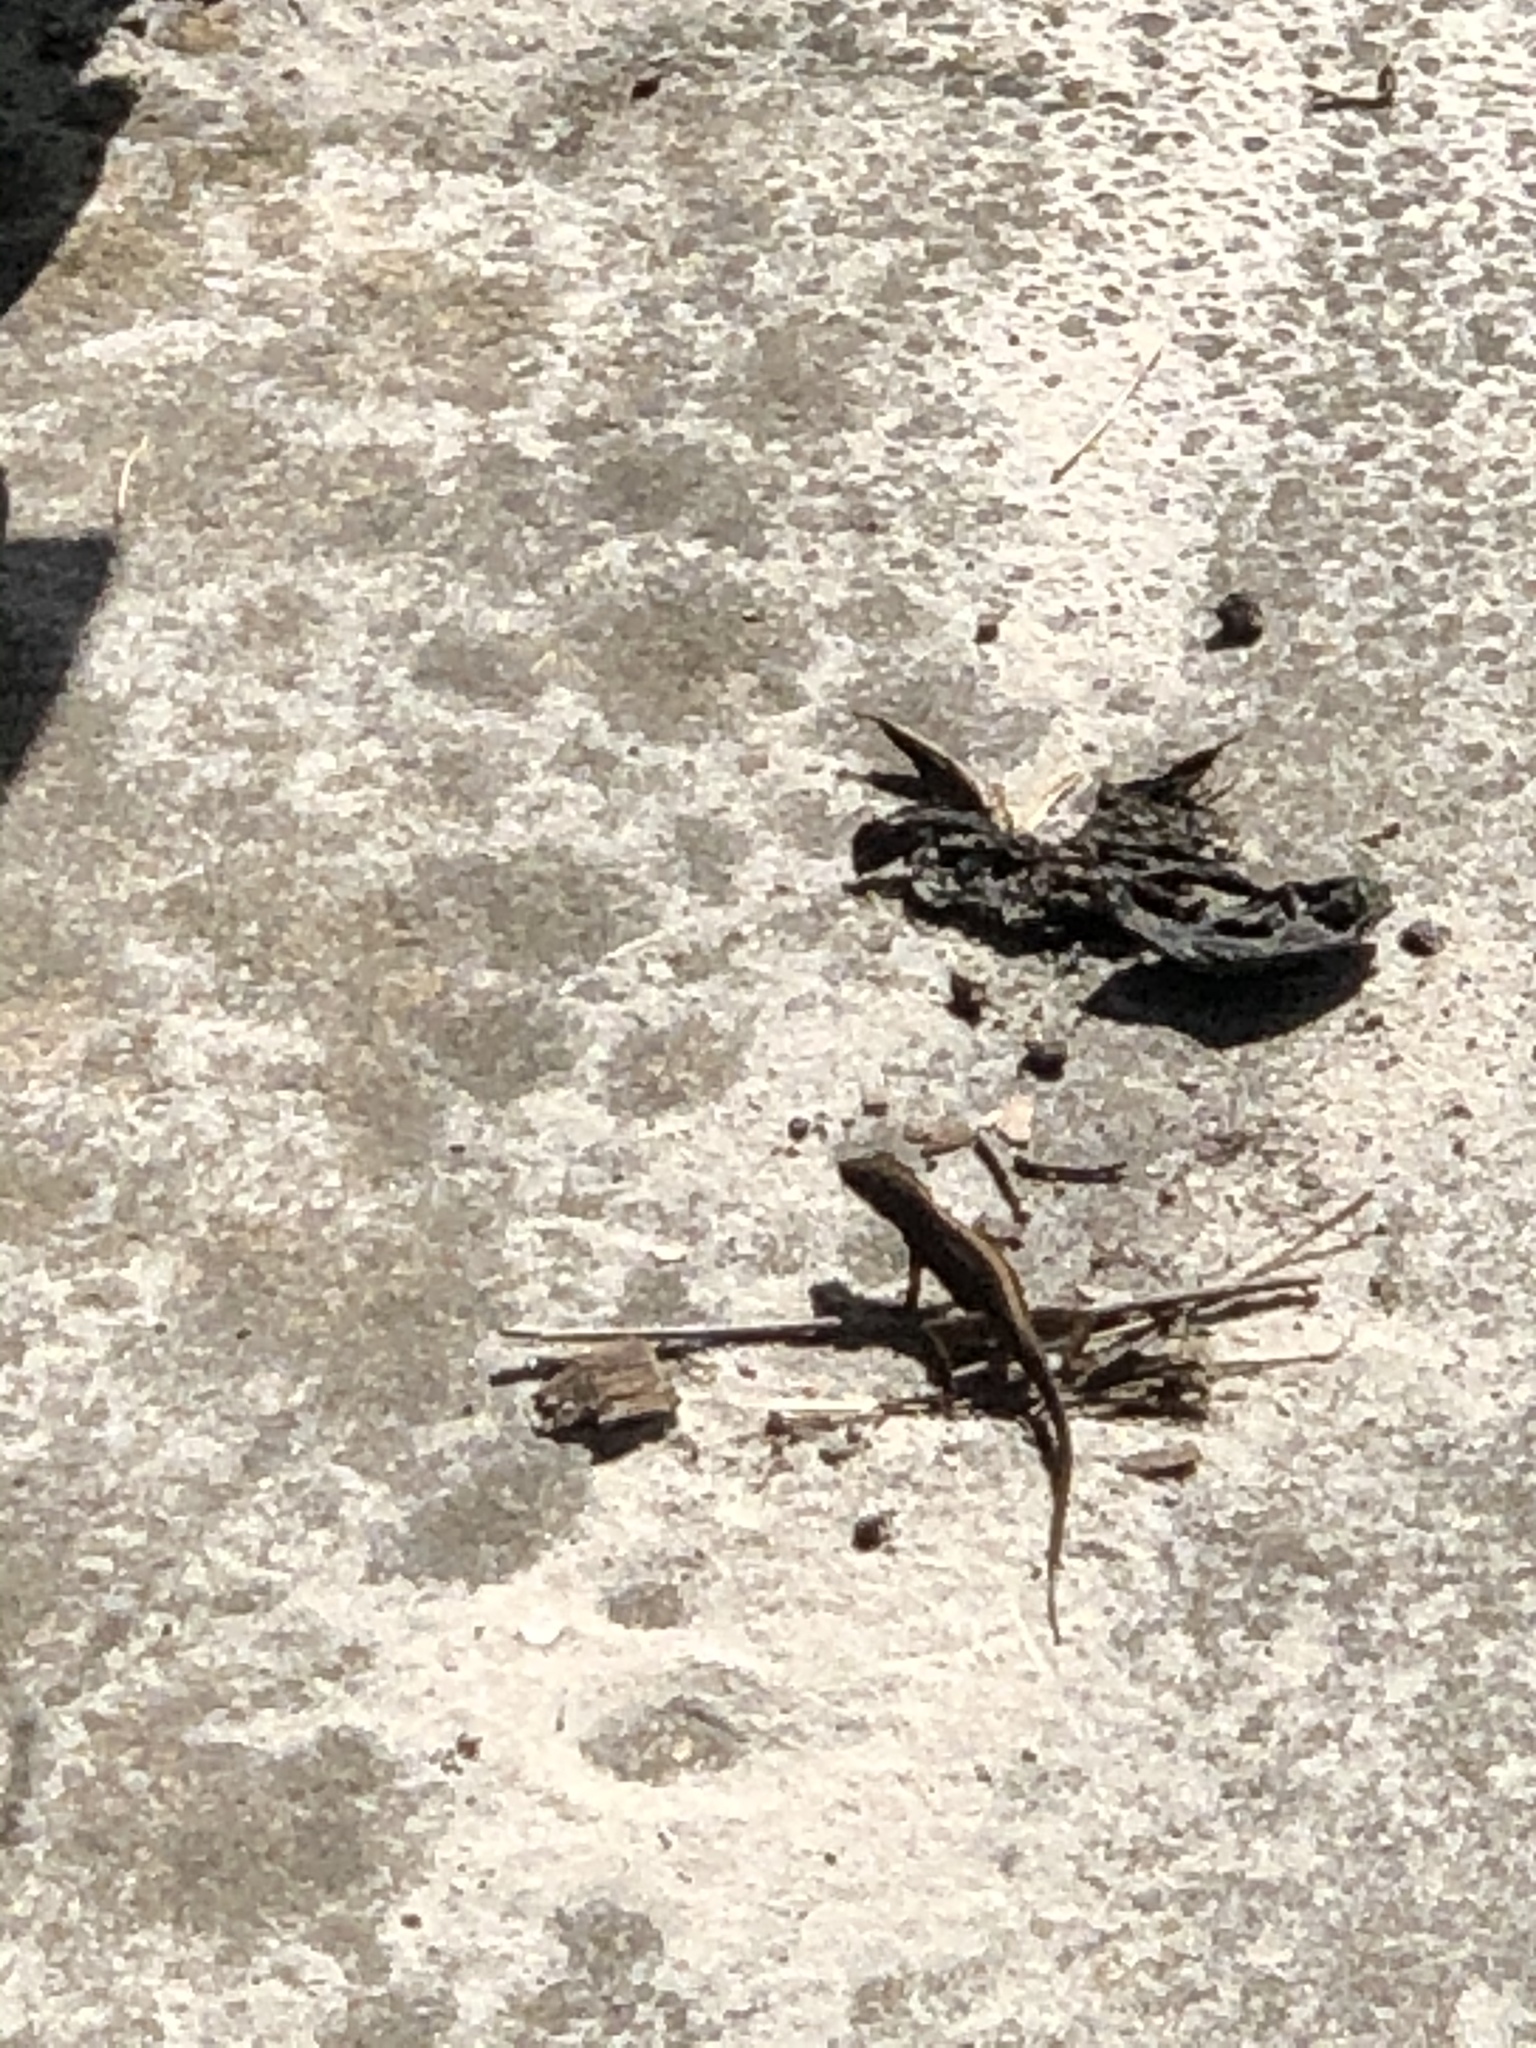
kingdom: Animalia
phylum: Chordata
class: Squamata
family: Dactyloidae
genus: Anolis
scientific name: Anolis sagrei
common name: Brown anole
